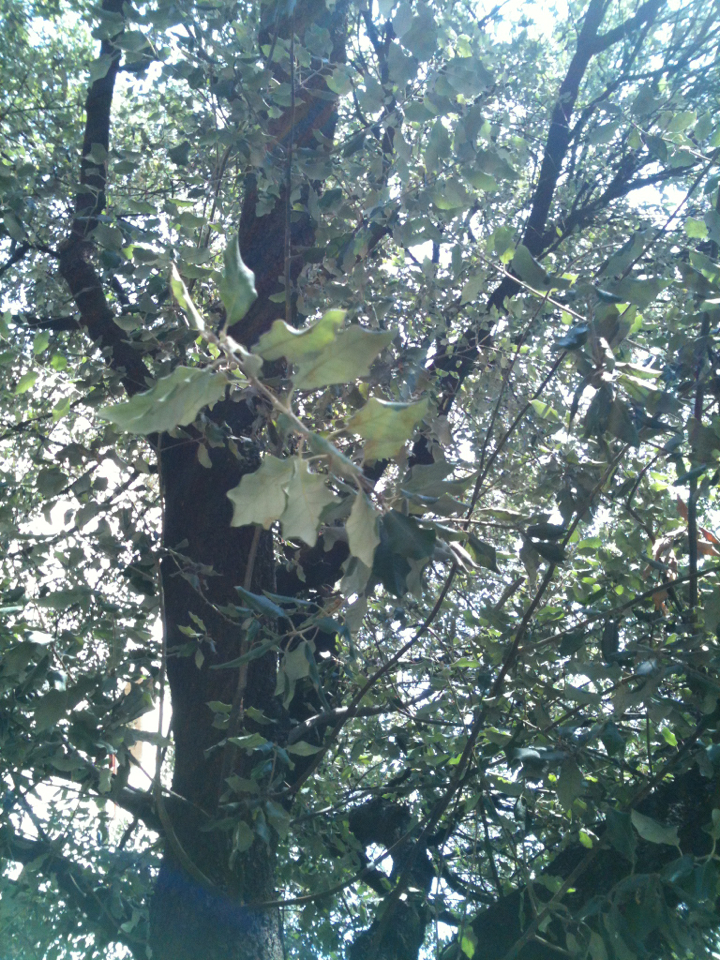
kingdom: Plantae
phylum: Tracheophyta
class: Magnoliopsida
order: Fagales
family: Fagaceae
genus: Quercus
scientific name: Quercus ilex
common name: Evergreen oak
